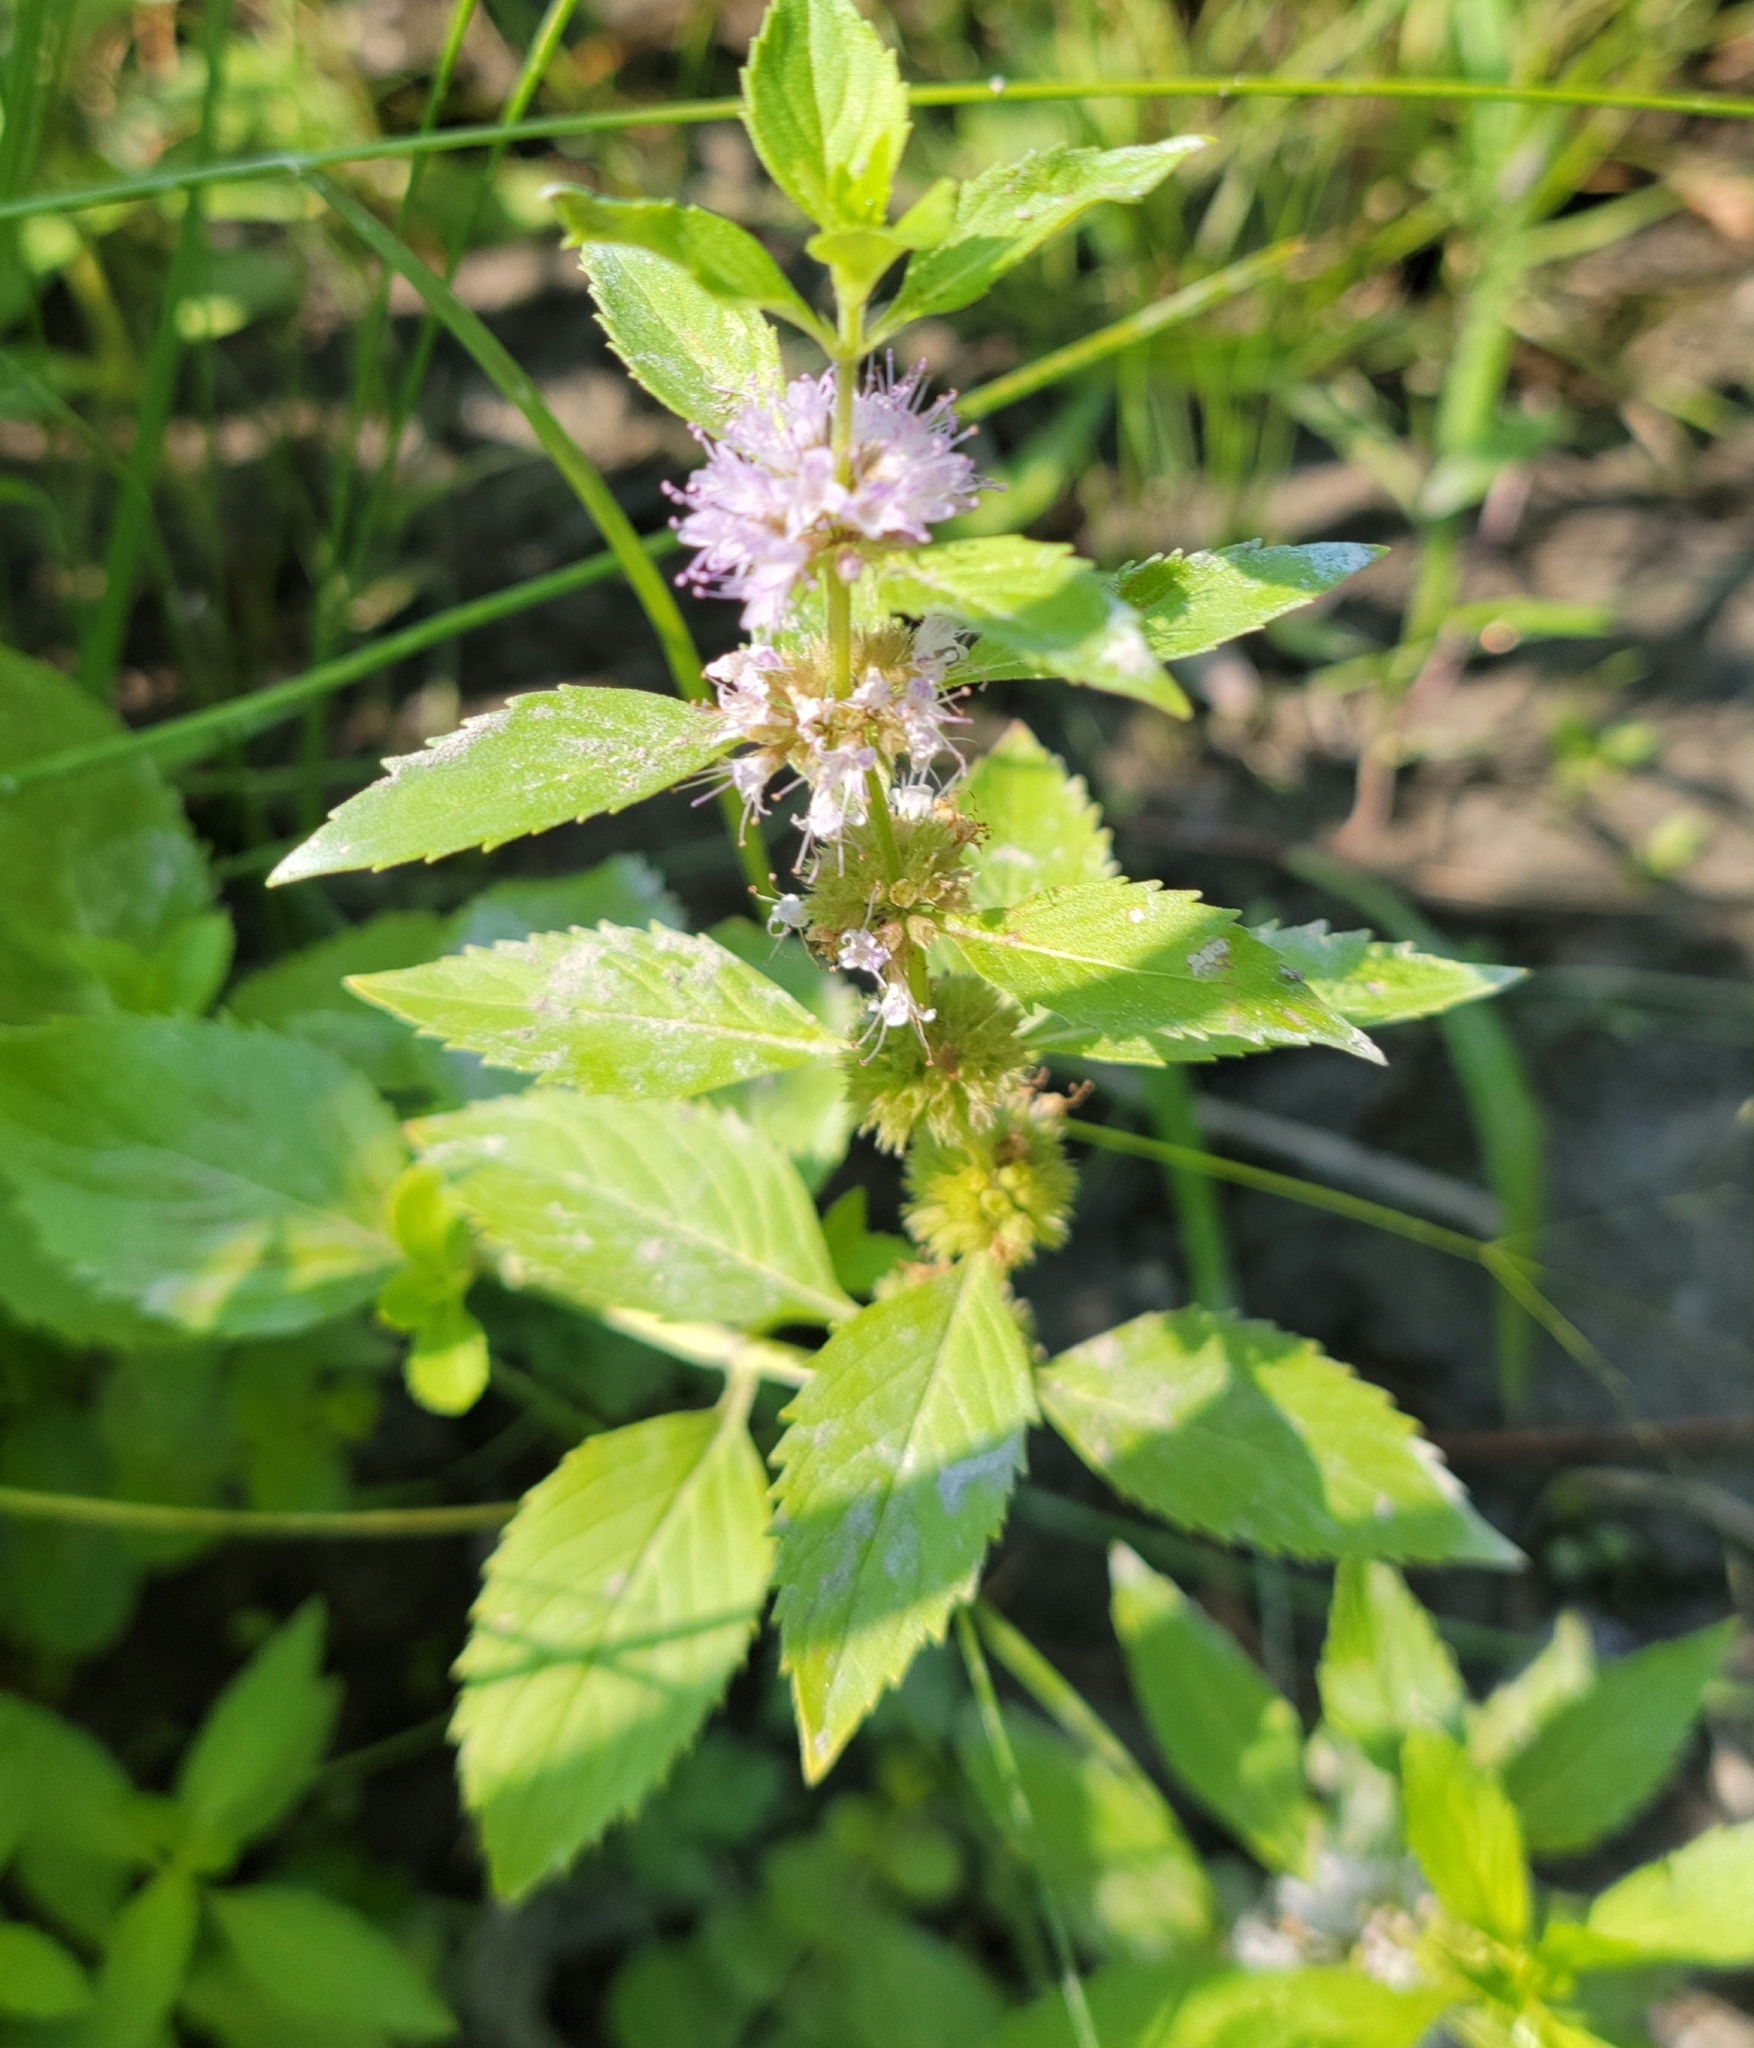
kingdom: Plantae
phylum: Tracheophyta
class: Magnoliopsida
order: Lamiales
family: Lamiaceae
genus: Mentha
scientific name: Mentha canadensis
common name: American corn mint
